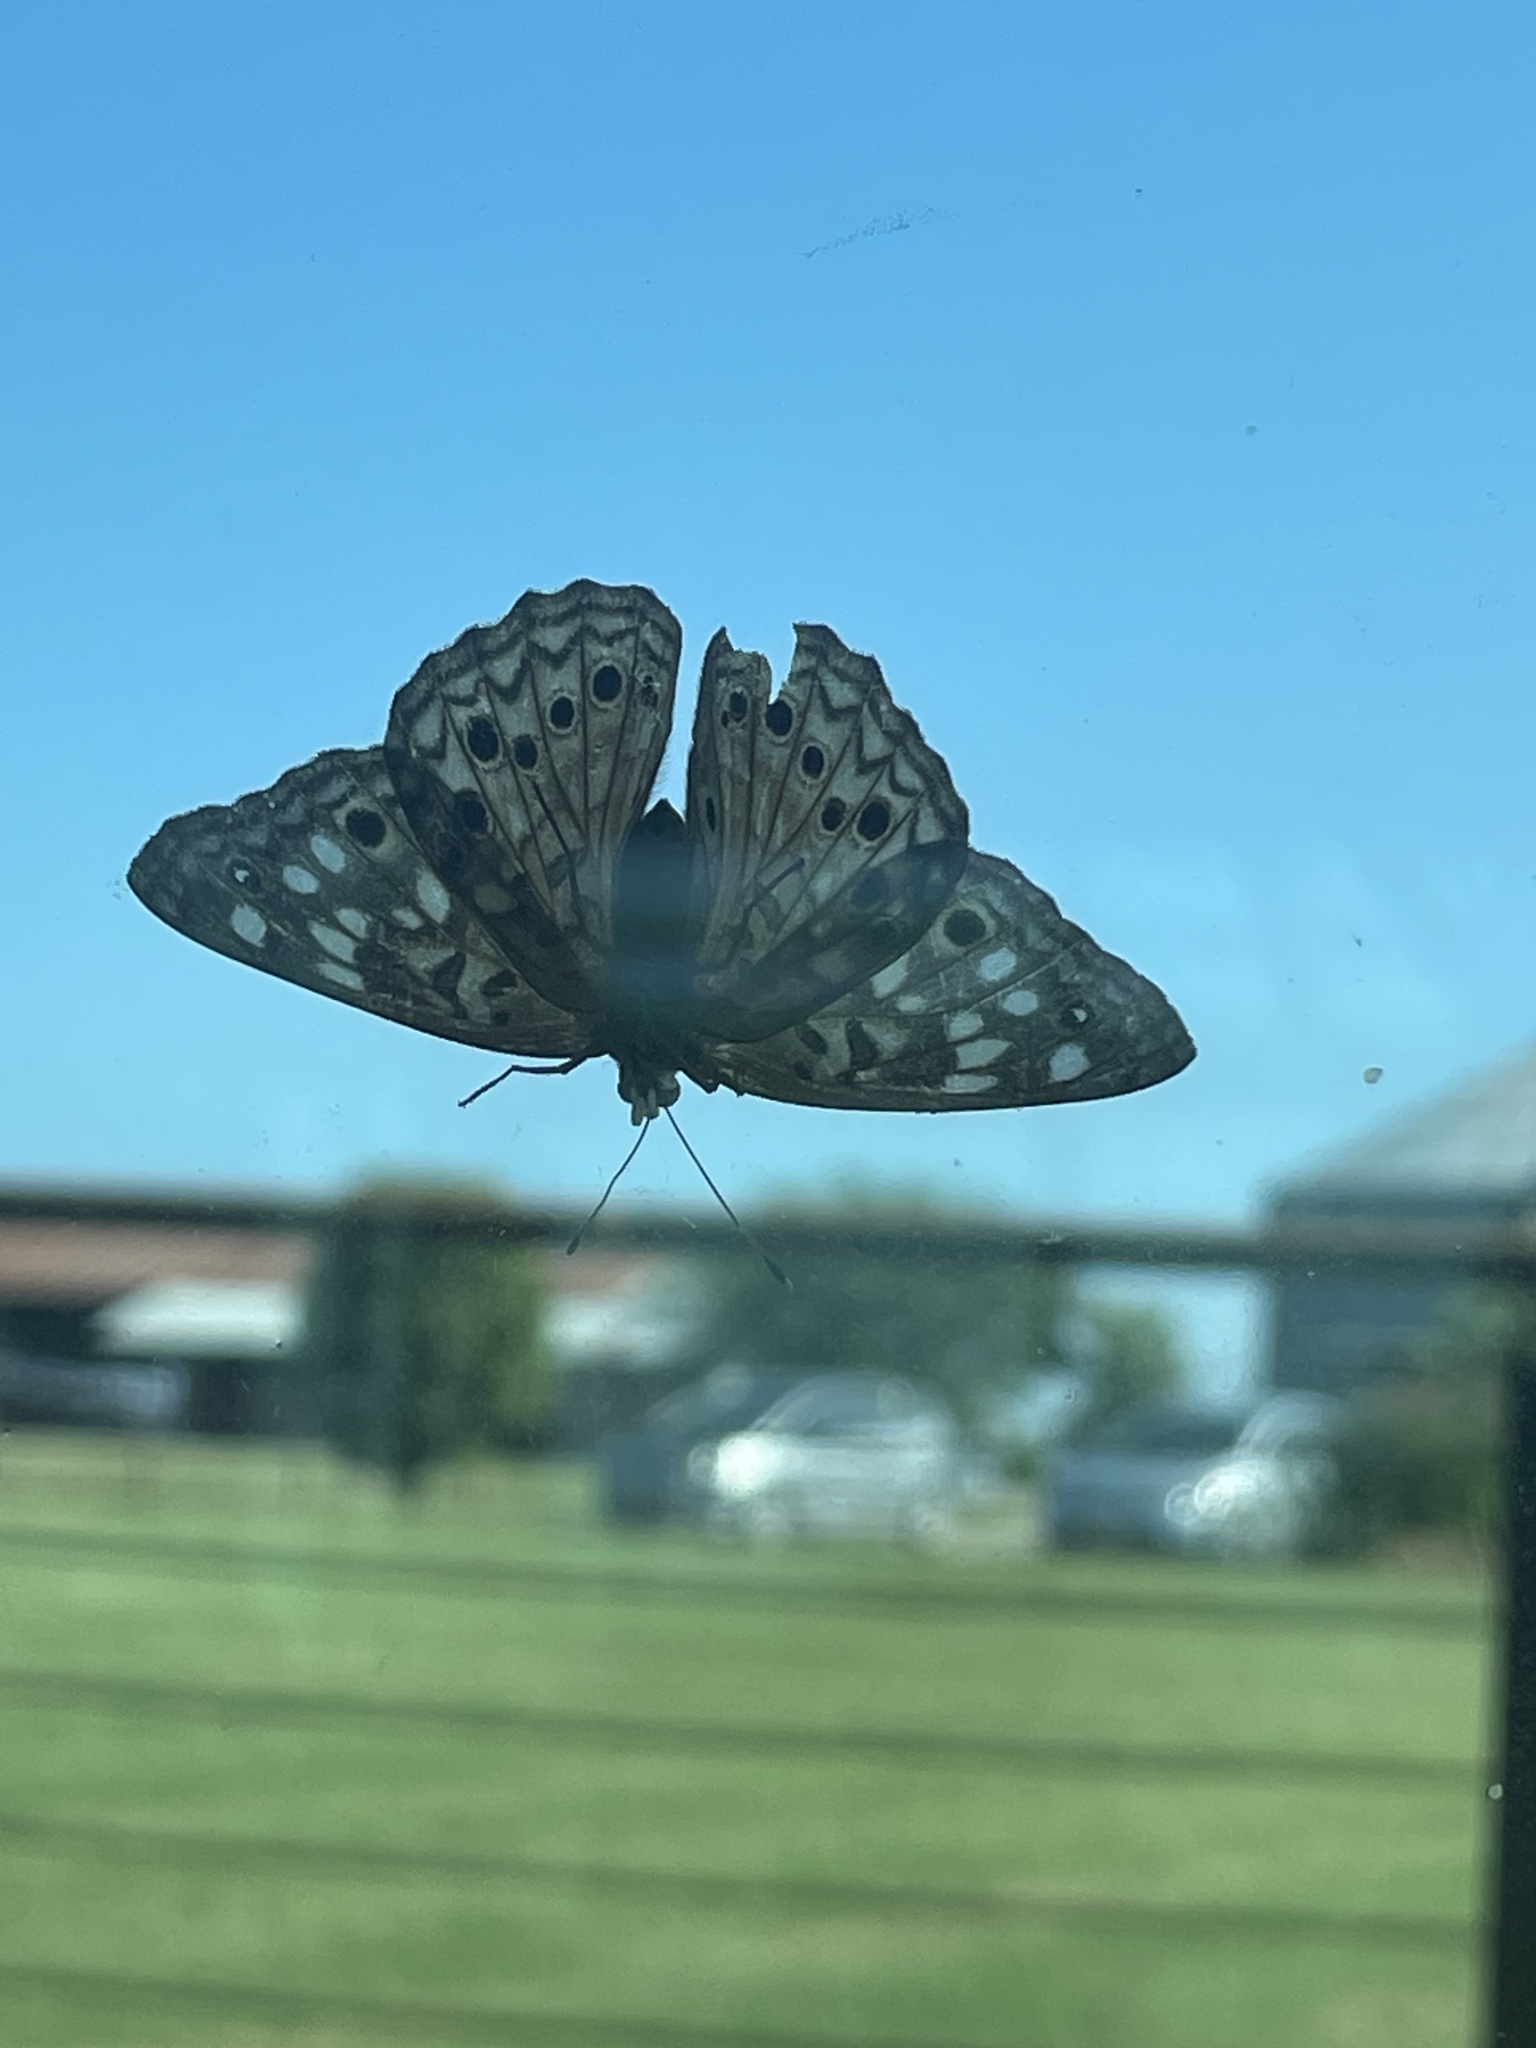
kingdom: Animalia
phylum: Arthropoda
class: Insecta
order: Lepidoptera
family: Nymphalidae
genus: Asterocampa
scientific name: Asterocampa celtis
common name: Hackberry emperor
